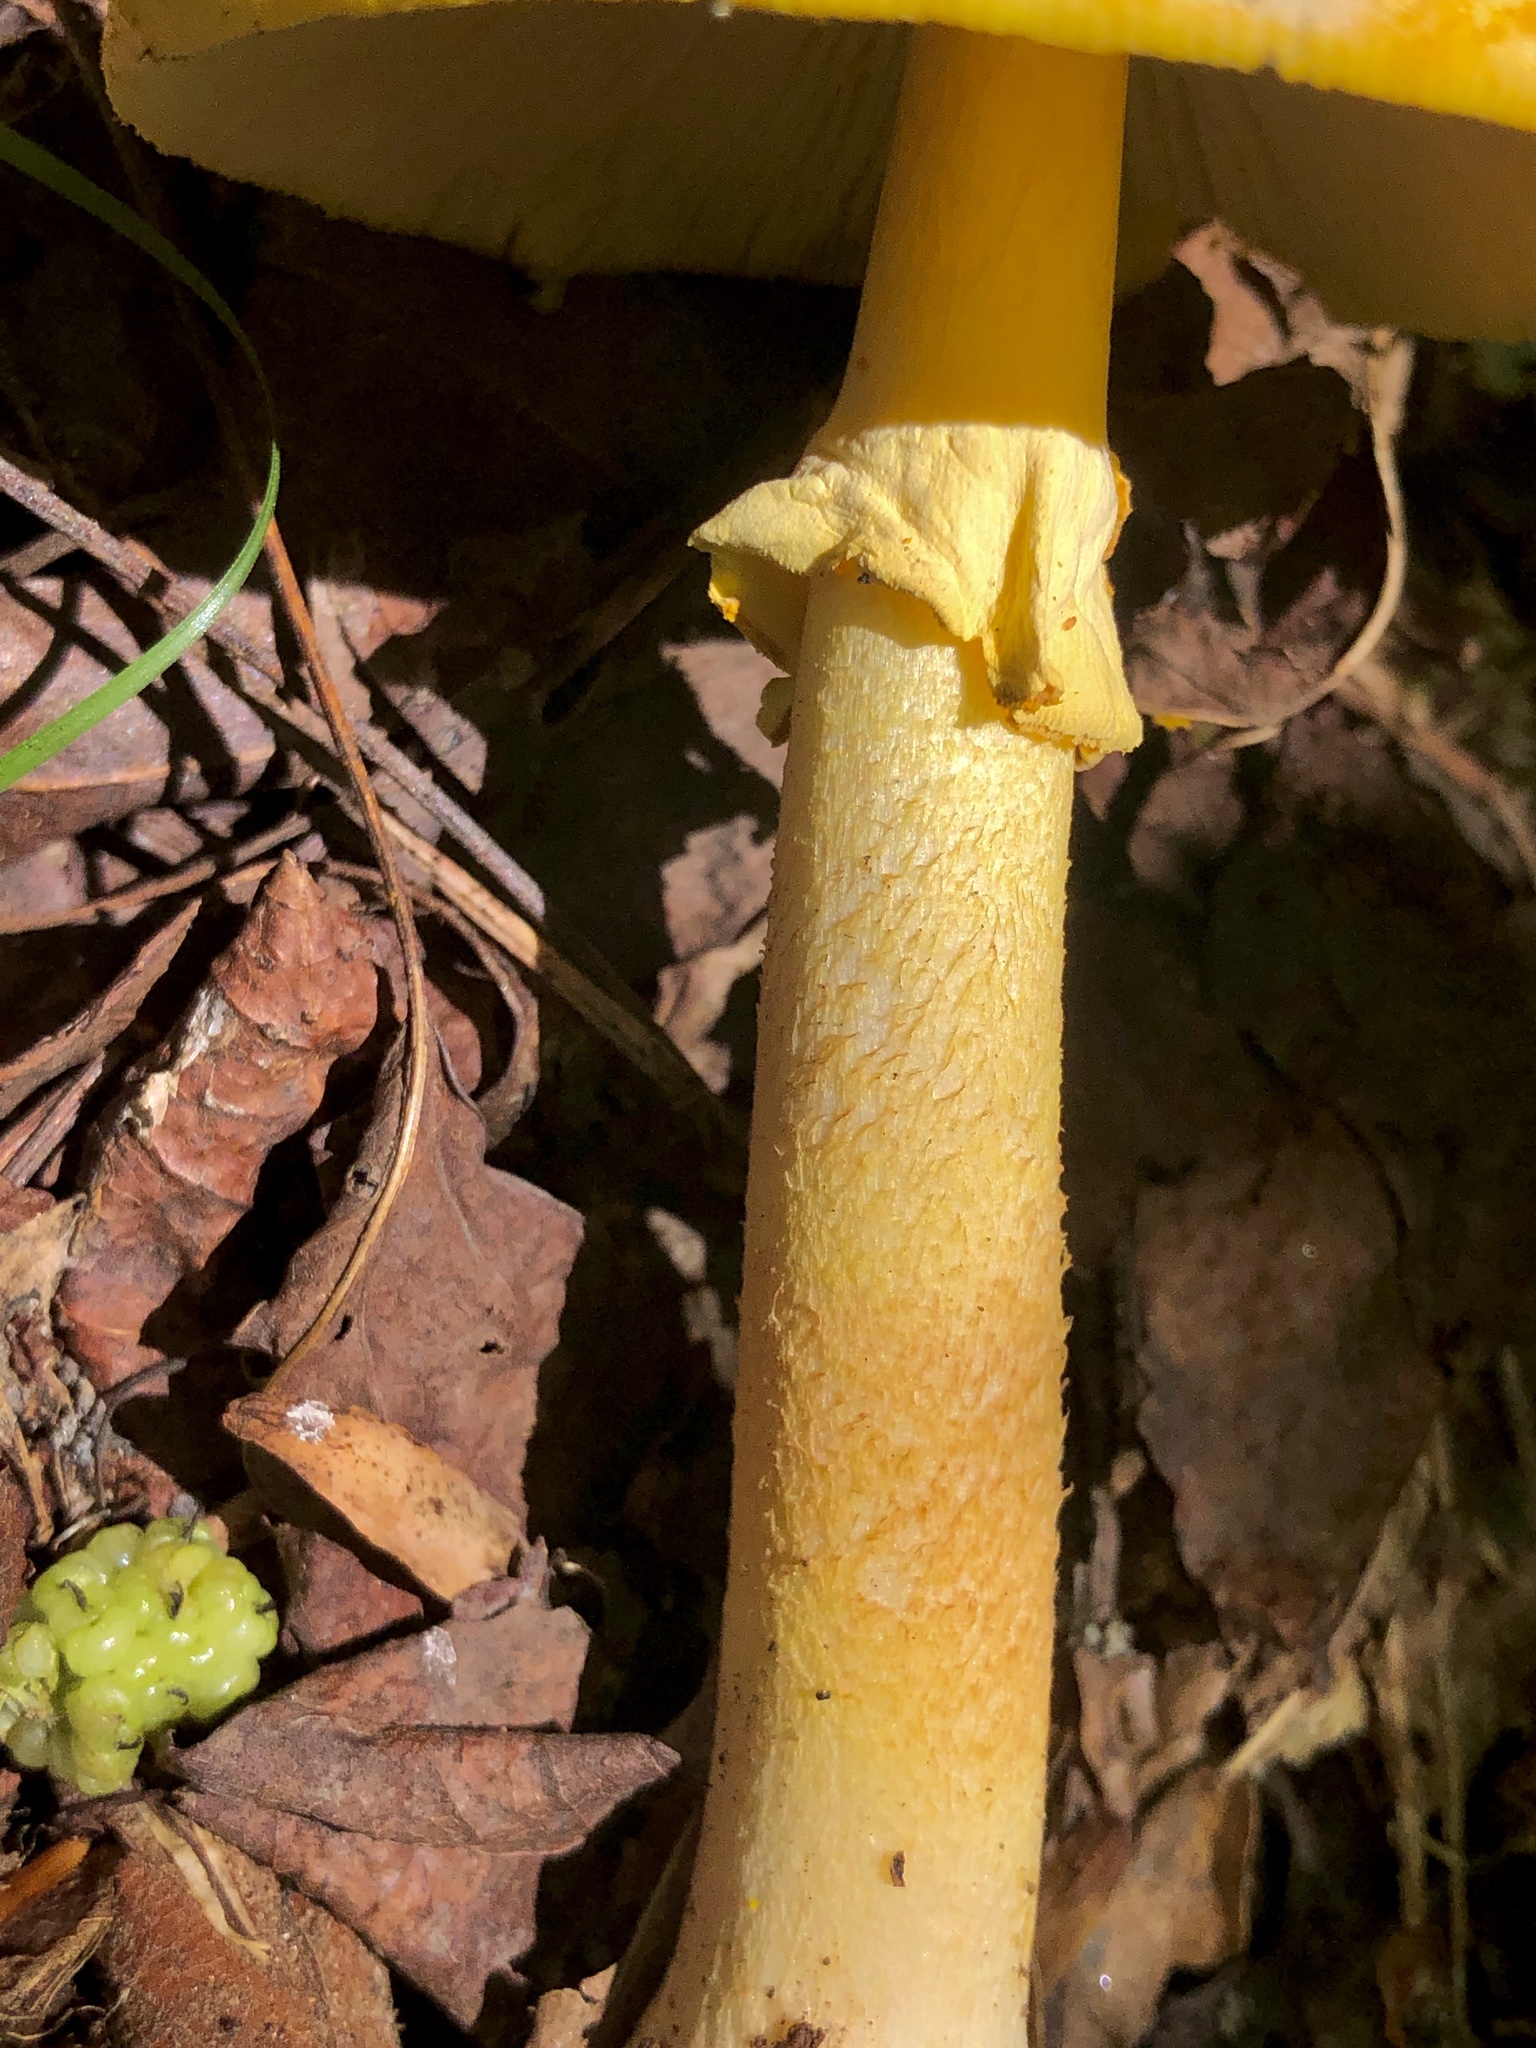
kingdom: Fungi
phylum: Basidiomycota
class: Agaricomycetes
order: Agaricales
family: Amanitaceae
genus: Amanita
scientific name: Amanita flavoconia
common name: Yellow patches
